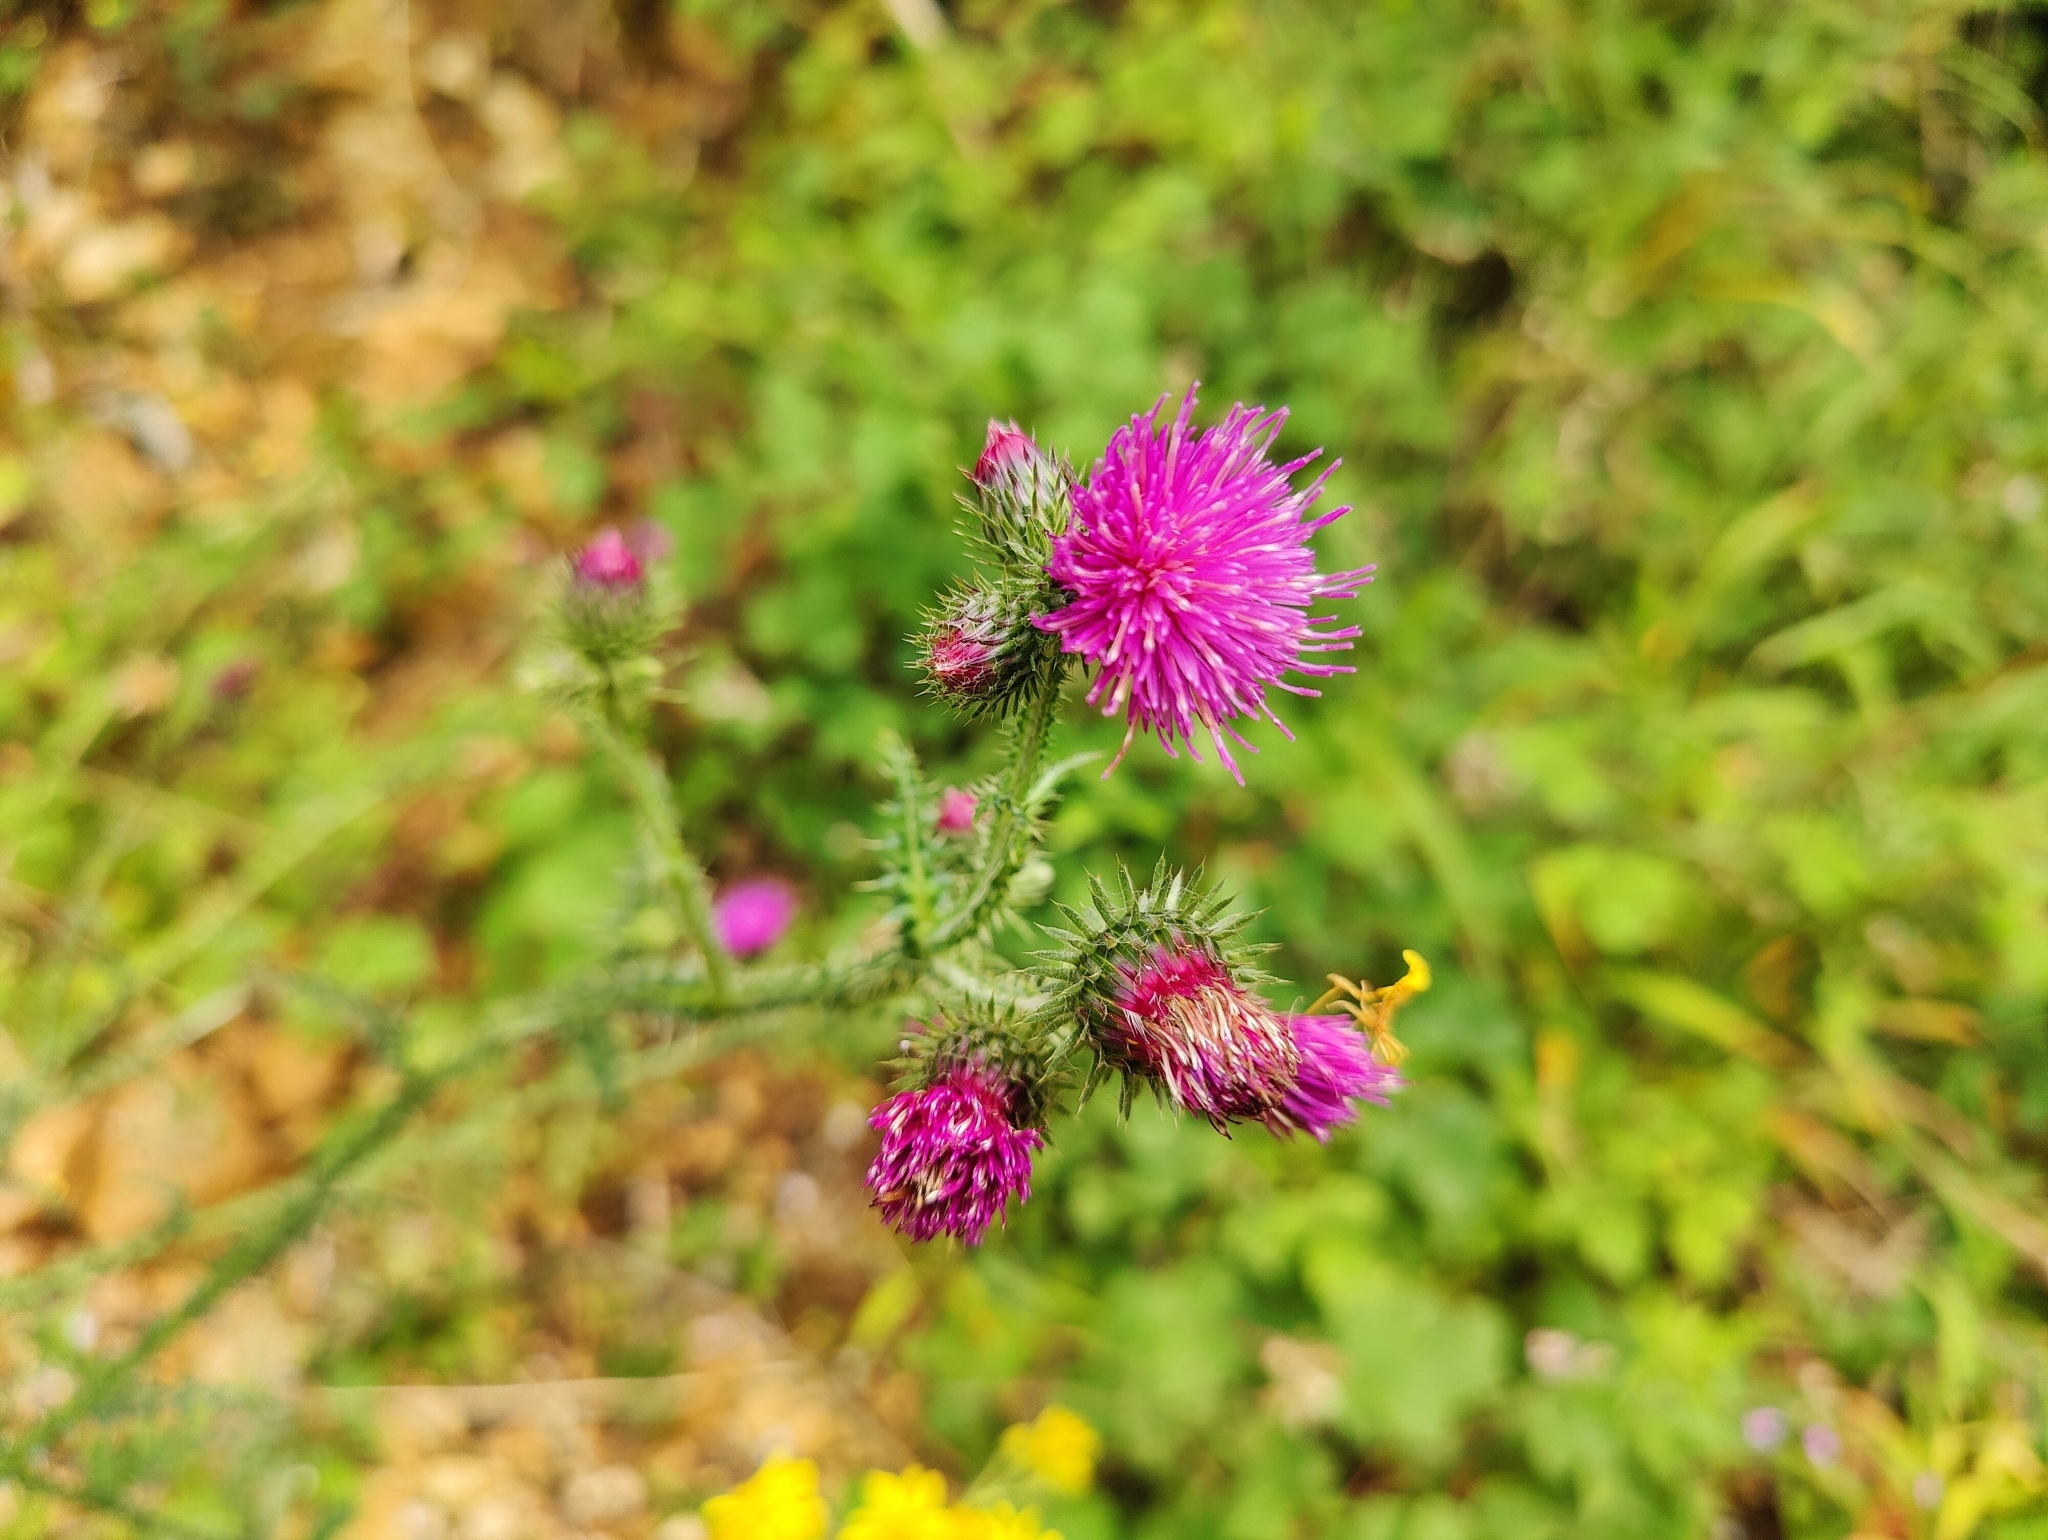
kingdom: Plantae
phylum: Tracheophyta
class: Magnoliopsida
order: Asterales
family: Asteraceae
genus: Carduus
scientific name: Carduus crispus
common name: Welted thistle
